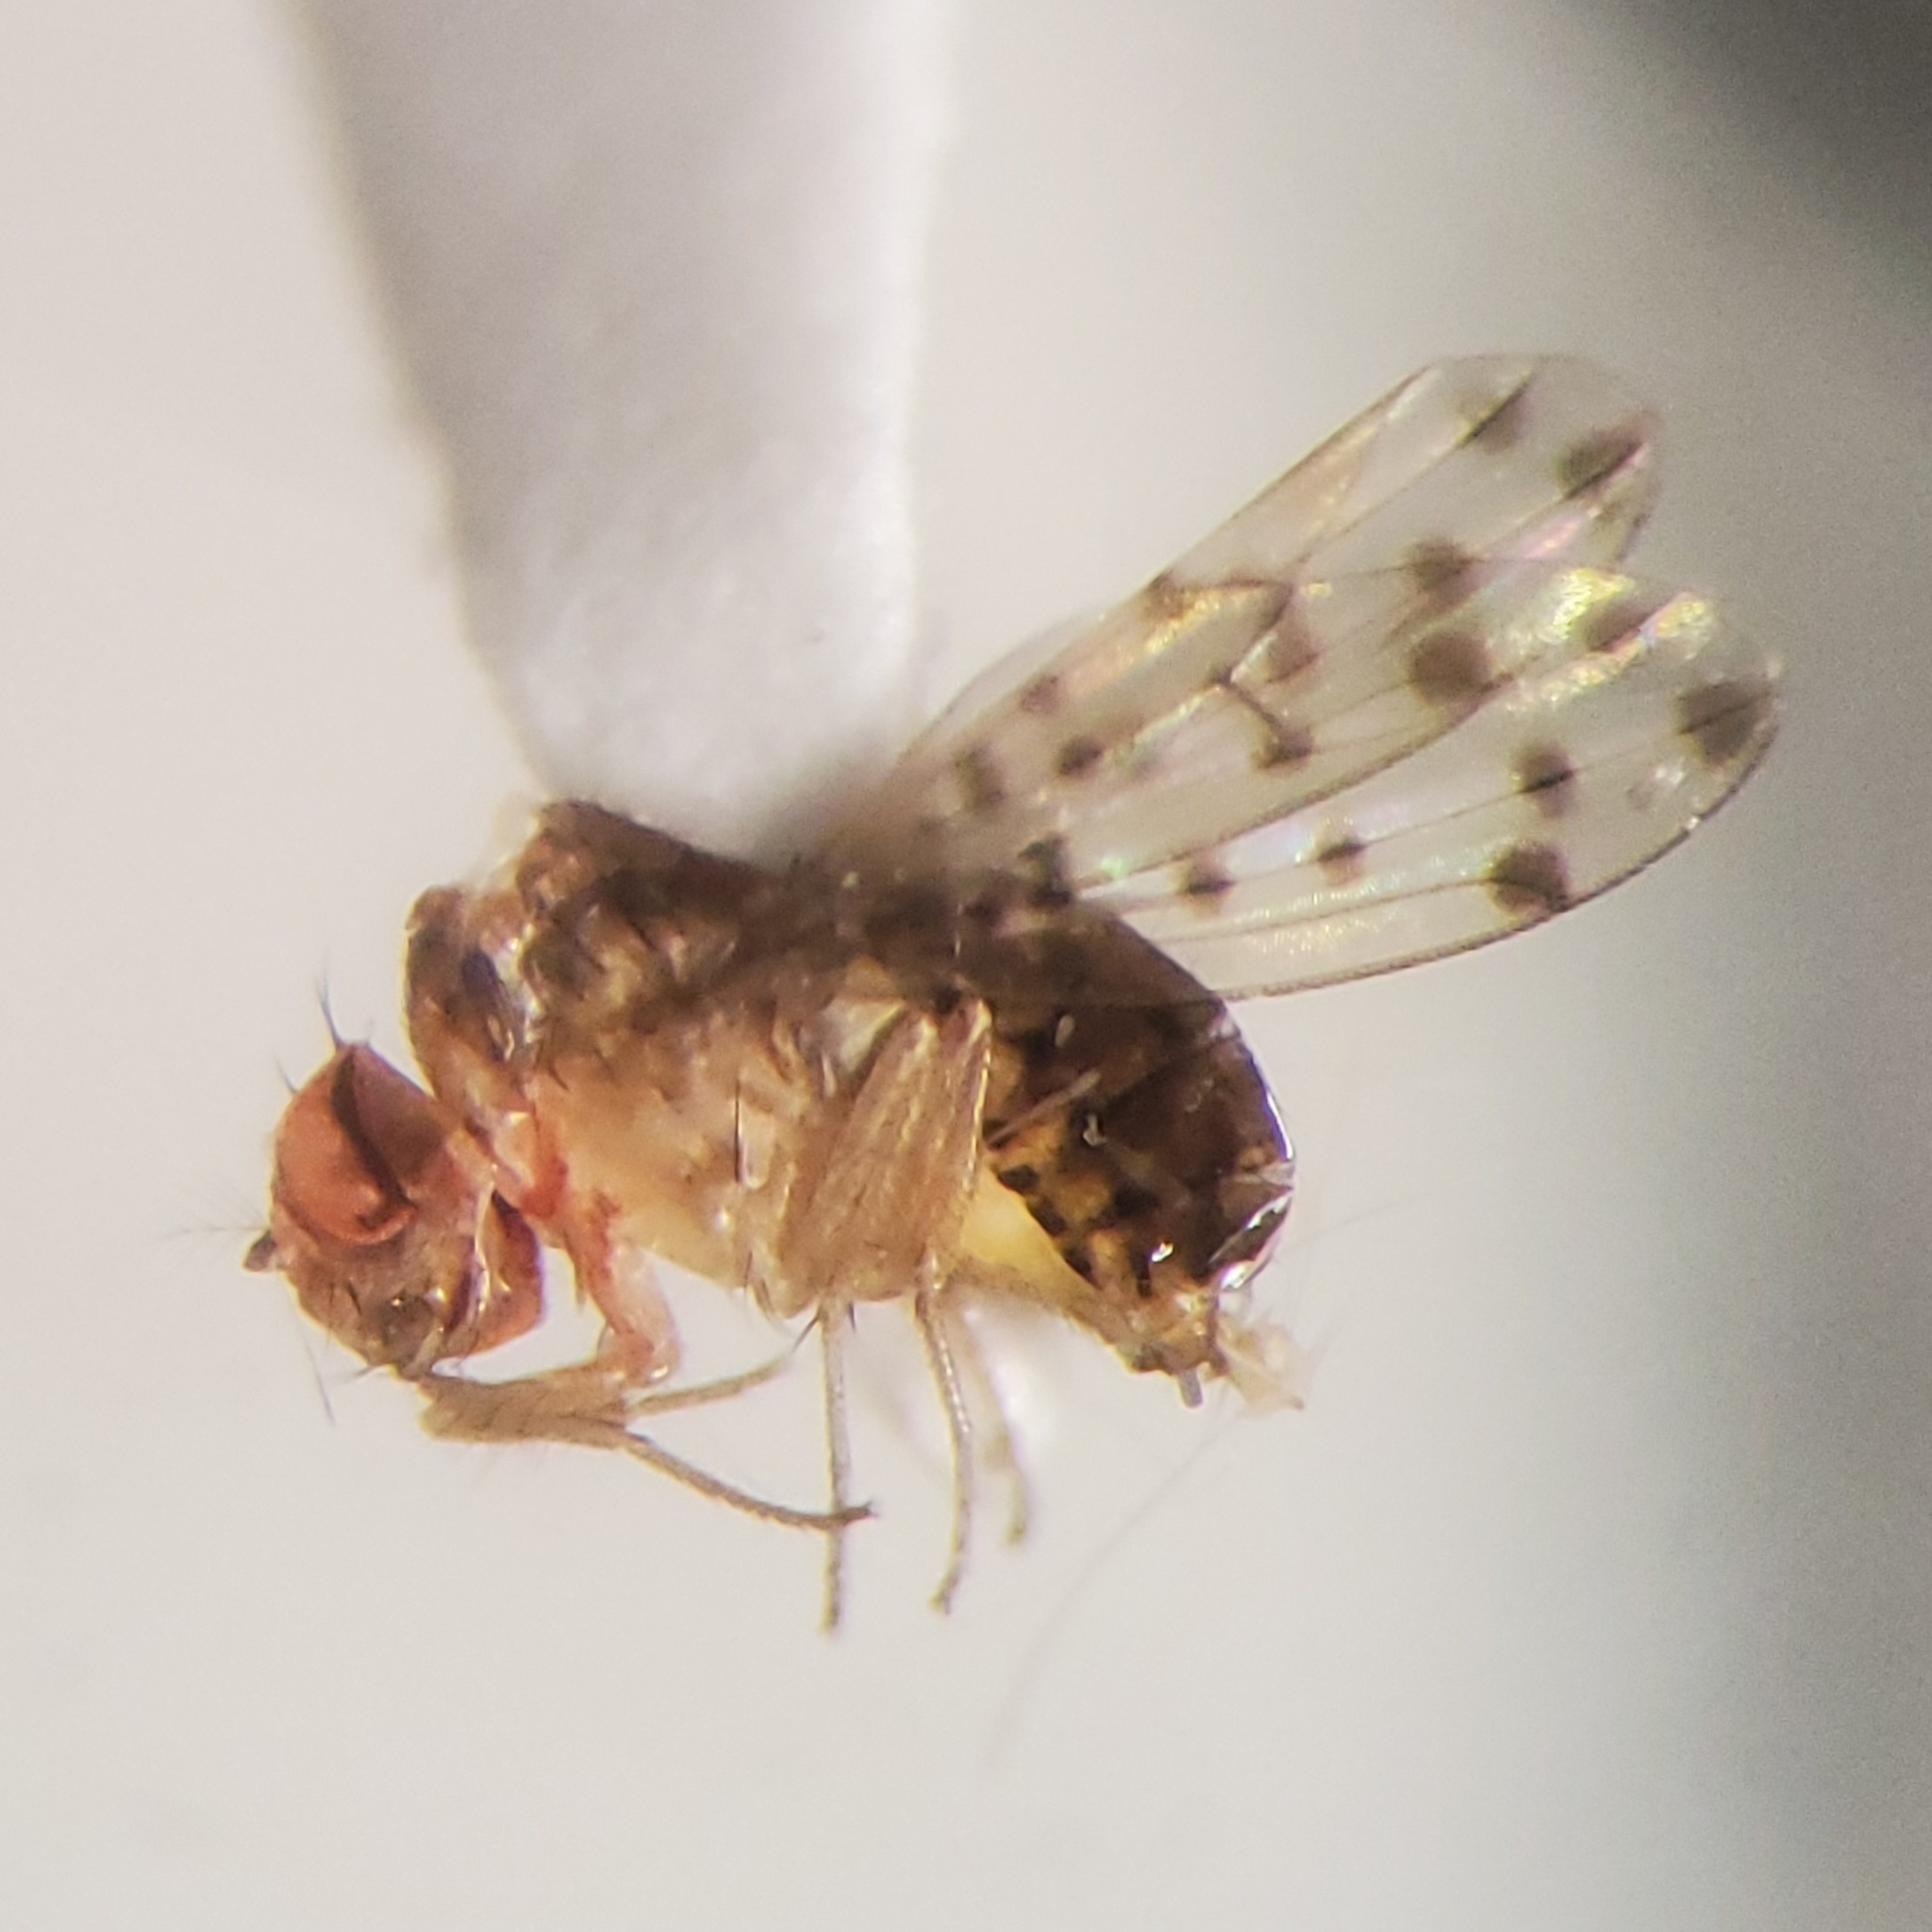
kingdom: Animalia
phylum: Arthropoda
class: Insecta
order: Diptera
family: Drosophilidae
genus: Drosophila
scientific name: Drosophila guttifera
